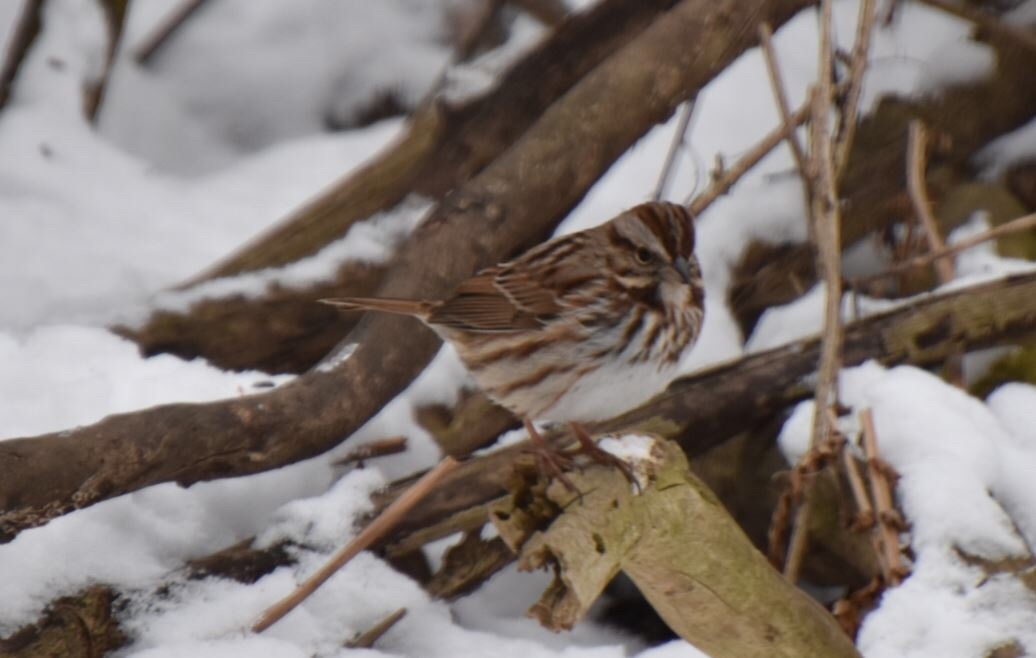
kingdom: Animalia
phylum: Chordata
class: Aves
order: Passeriformes
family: Passerellidae
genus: Melospiza
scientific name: Melospiza melodia
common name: Song sparrow
